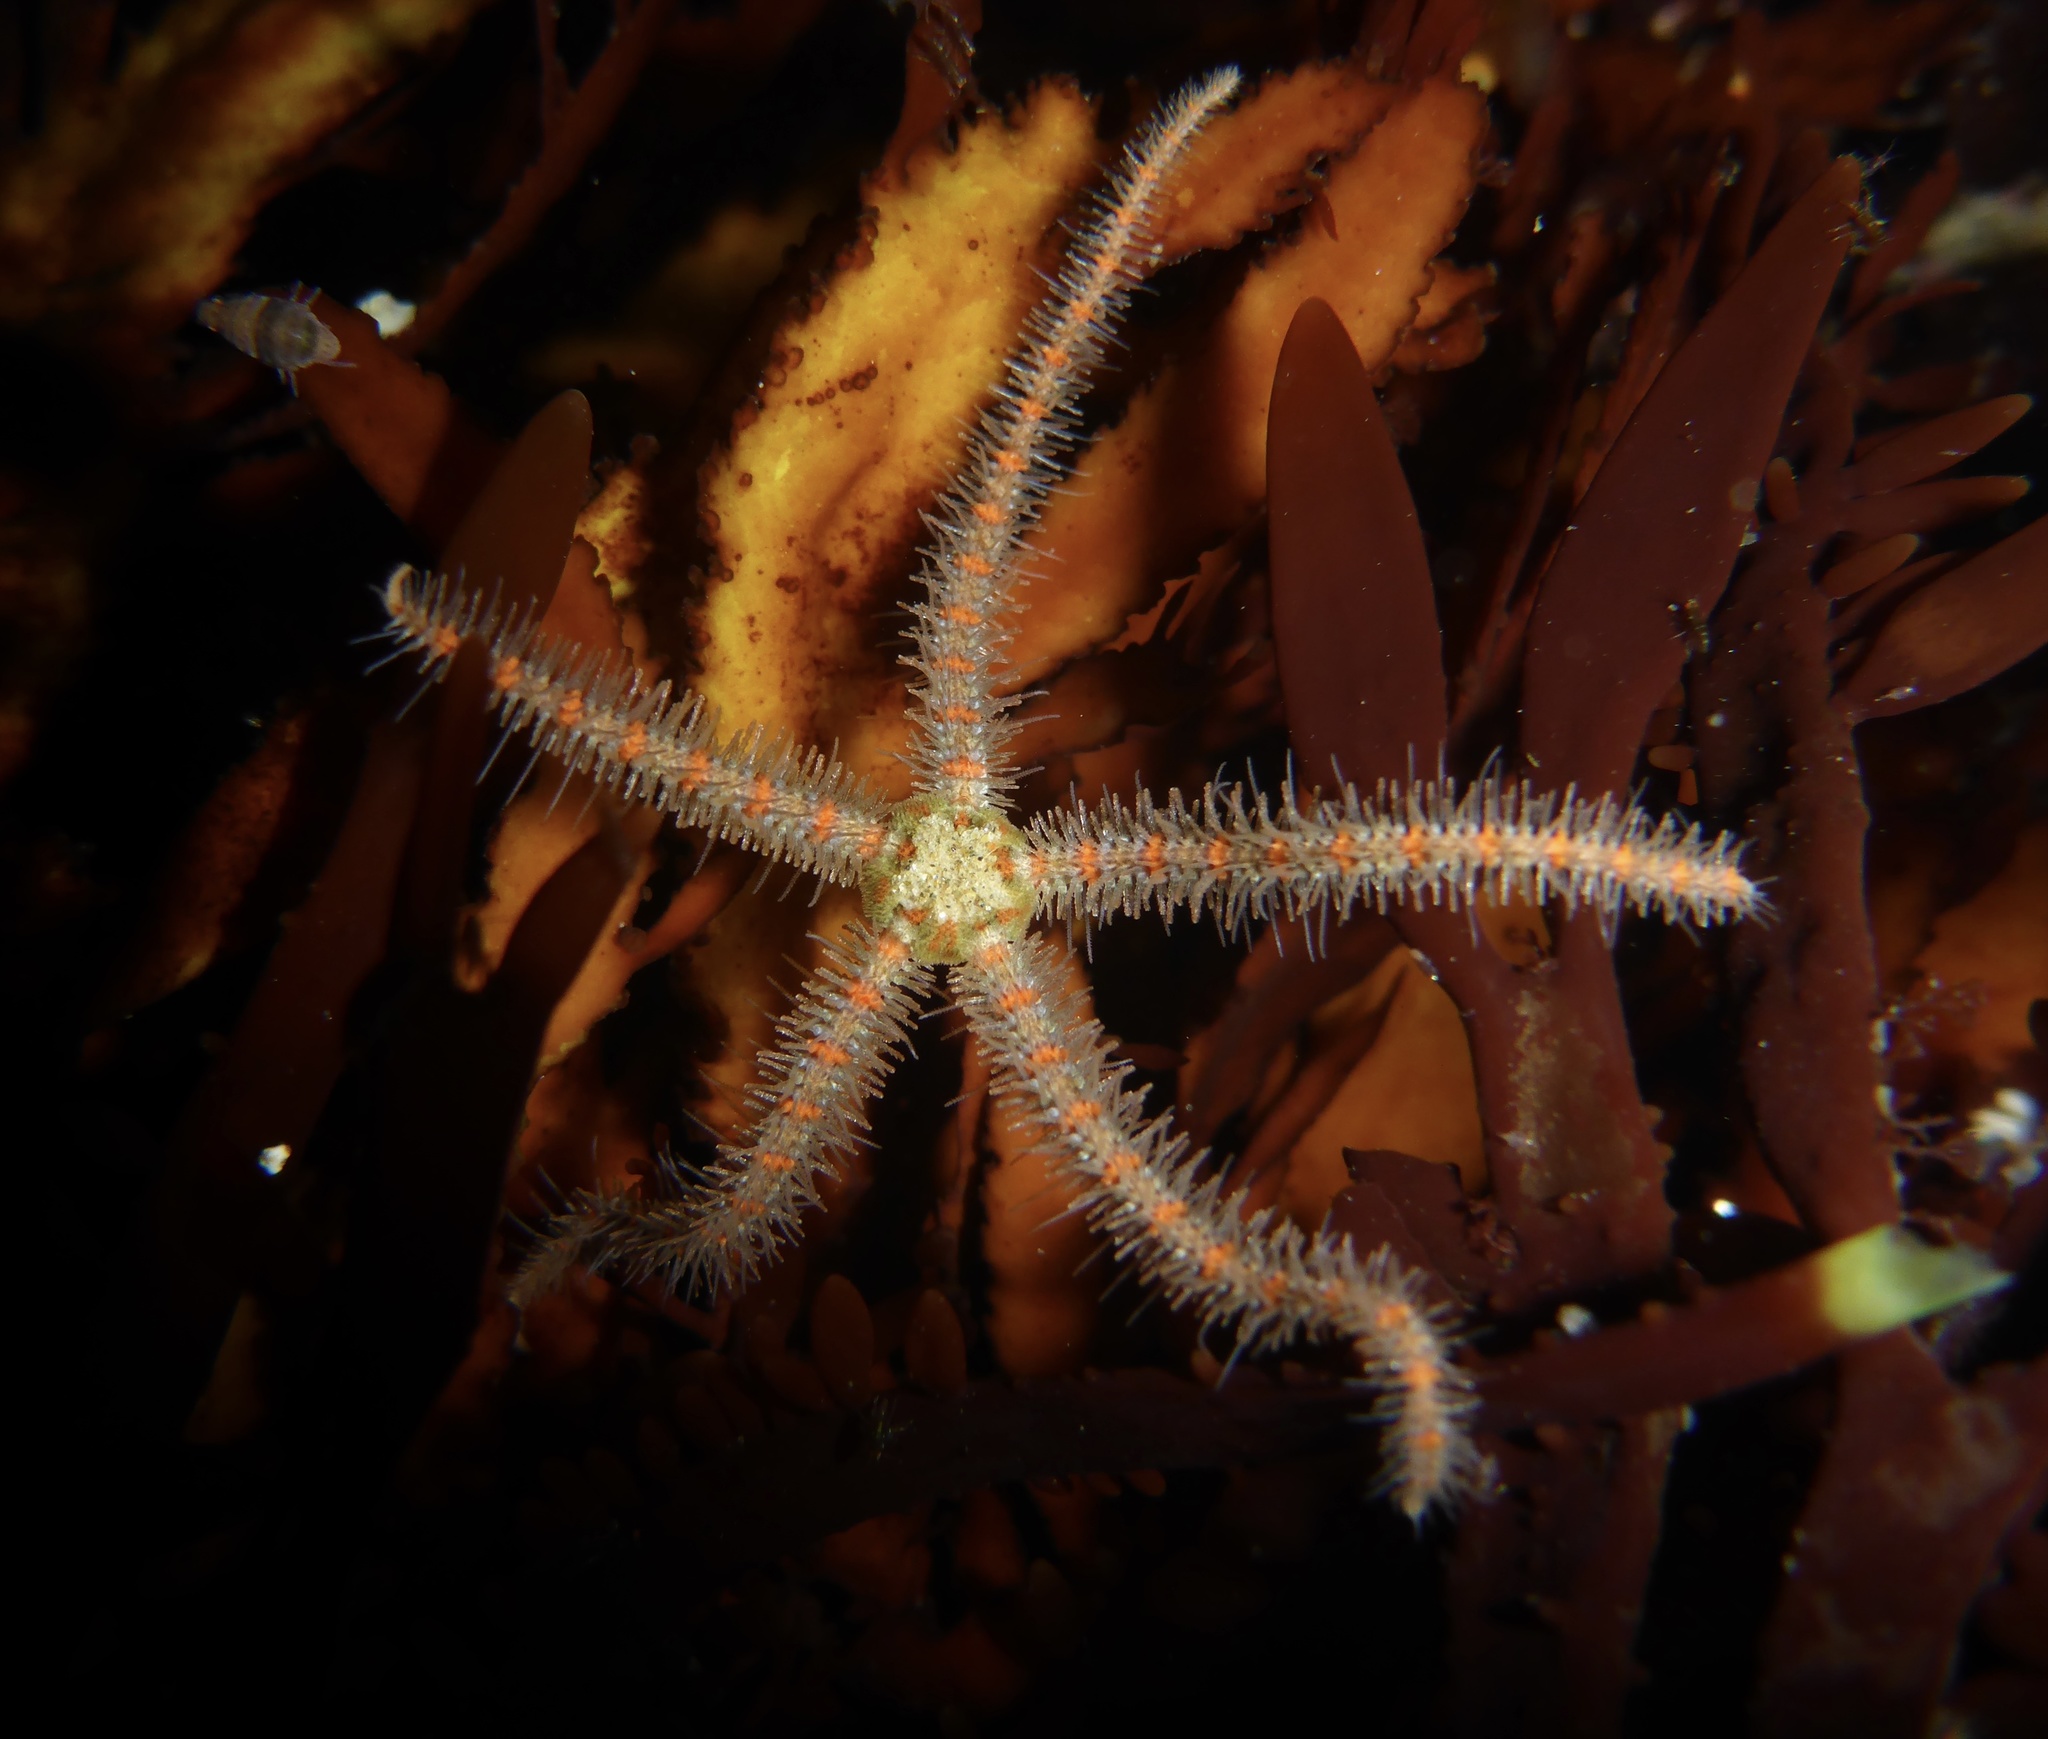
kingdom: Animalia
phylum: Echinodermata
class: Ophiuroidea
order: Amphilepidida
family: Ophiotrichidae
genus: Ophiothrix
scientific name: Ophiothrix spiculata
